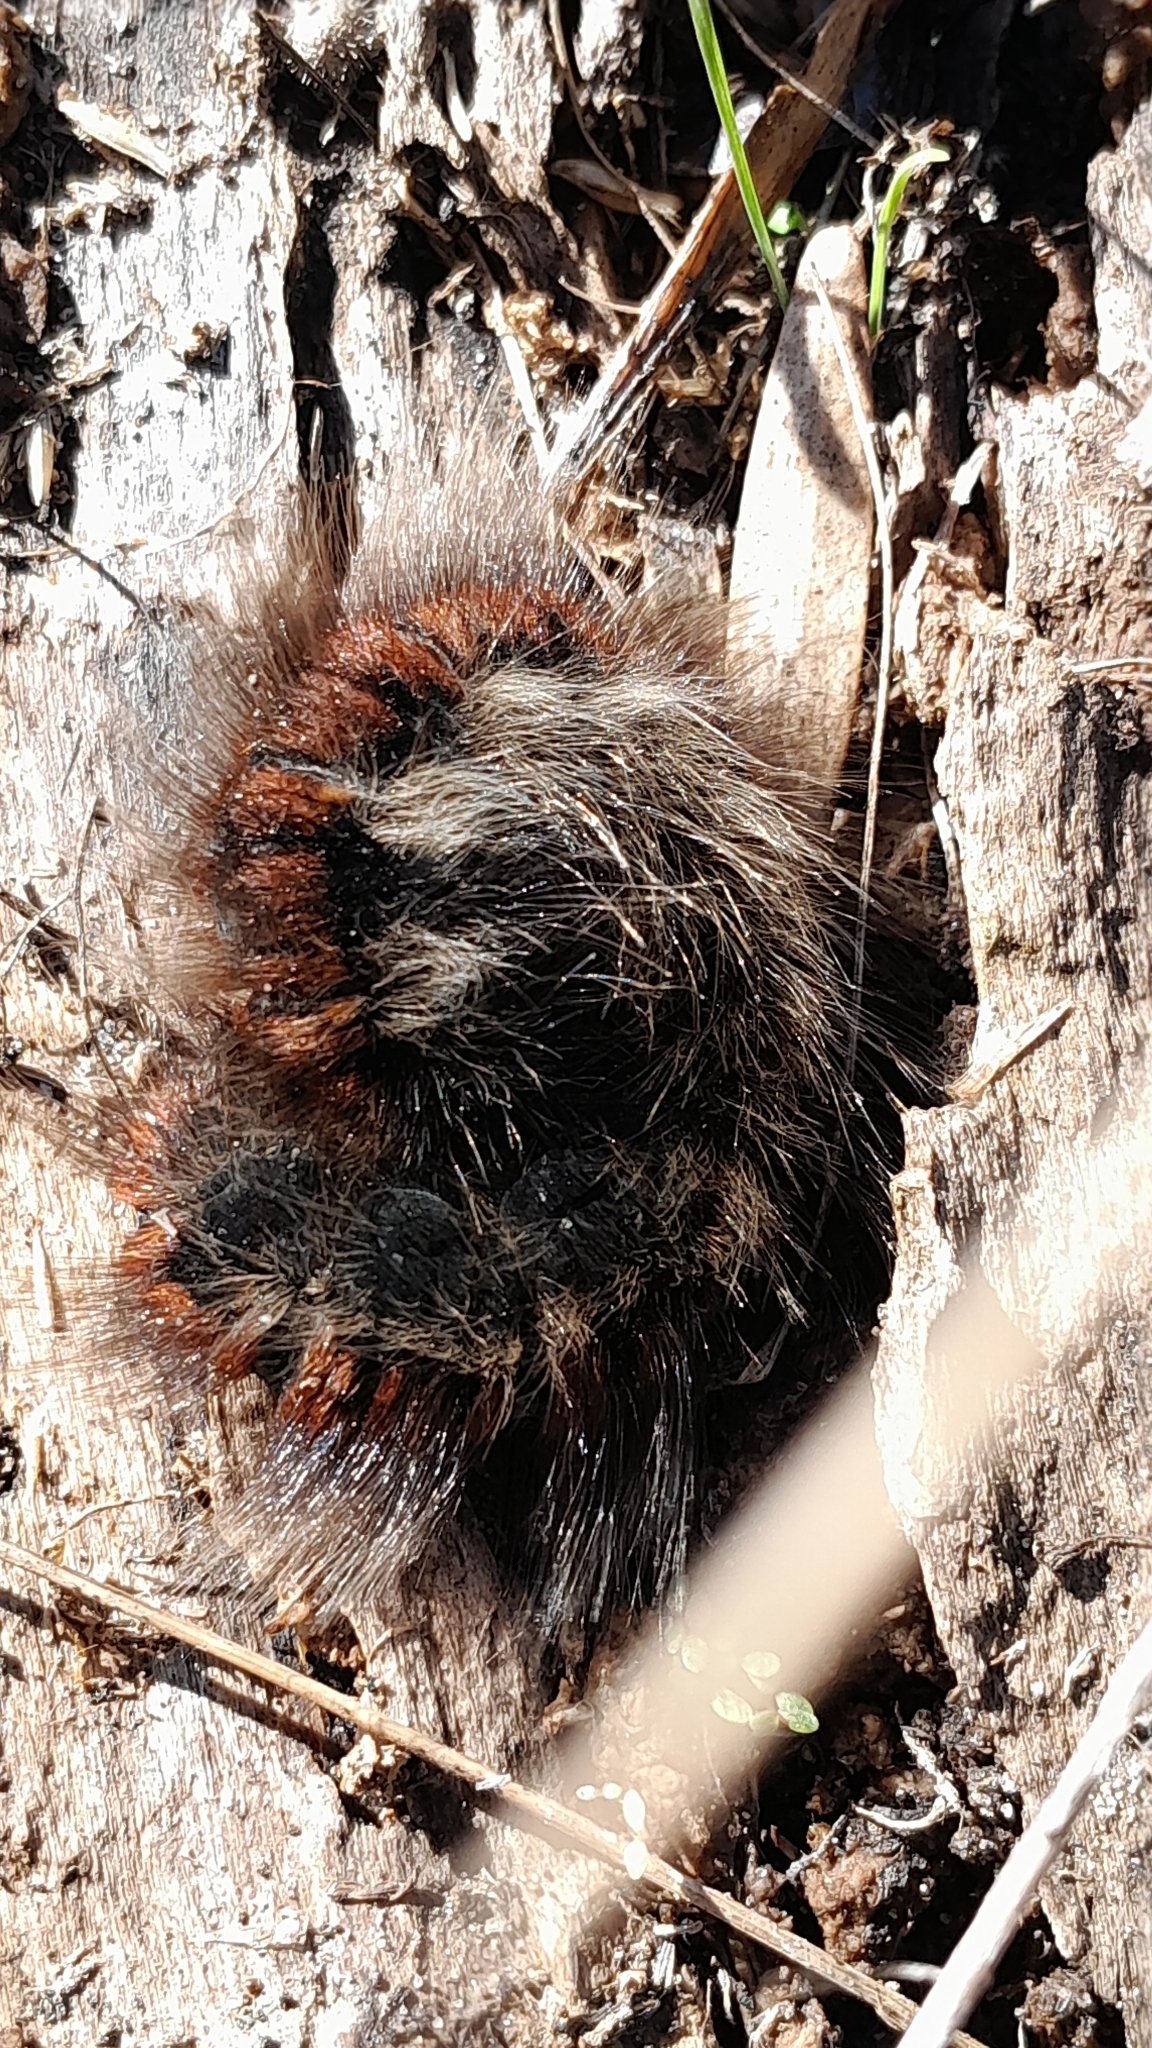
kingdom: Animalia
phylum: Arthropoda
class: Insecta
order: Lepidoptera
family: Lasiocampidae
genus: Macrothylacia
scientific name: Macrothylacia rubi
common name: Fox moth
